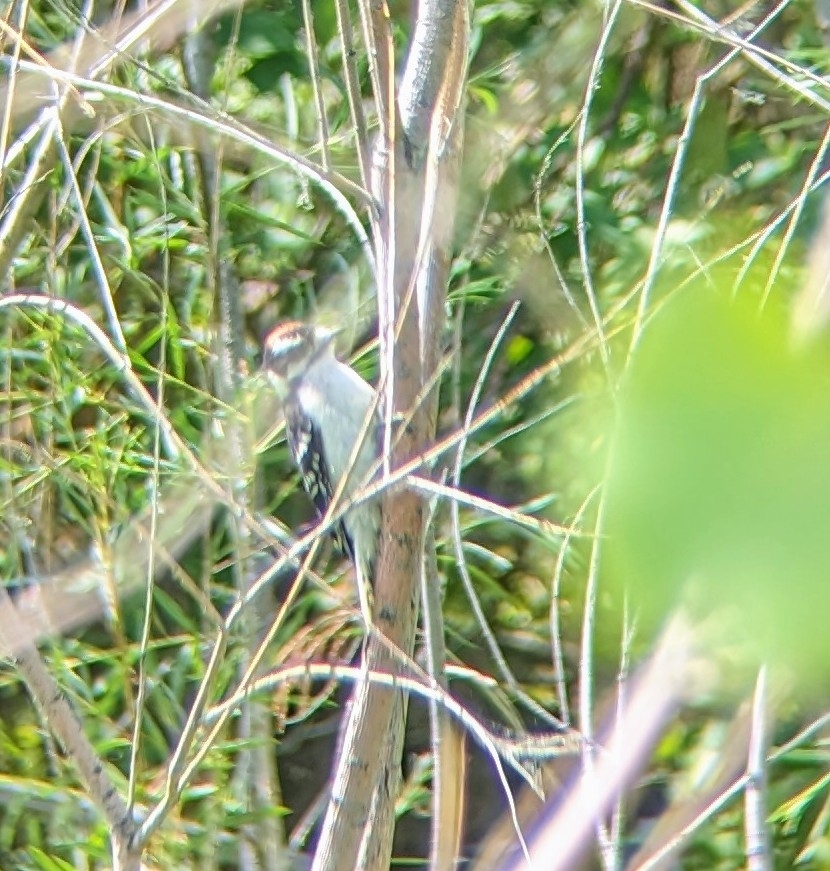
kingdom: Animalia
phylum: Chordata
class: Aves
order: Piciformes
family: Picidae
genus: Dryobates
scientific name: Dryobates pubescens
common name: Downy woodpecker
